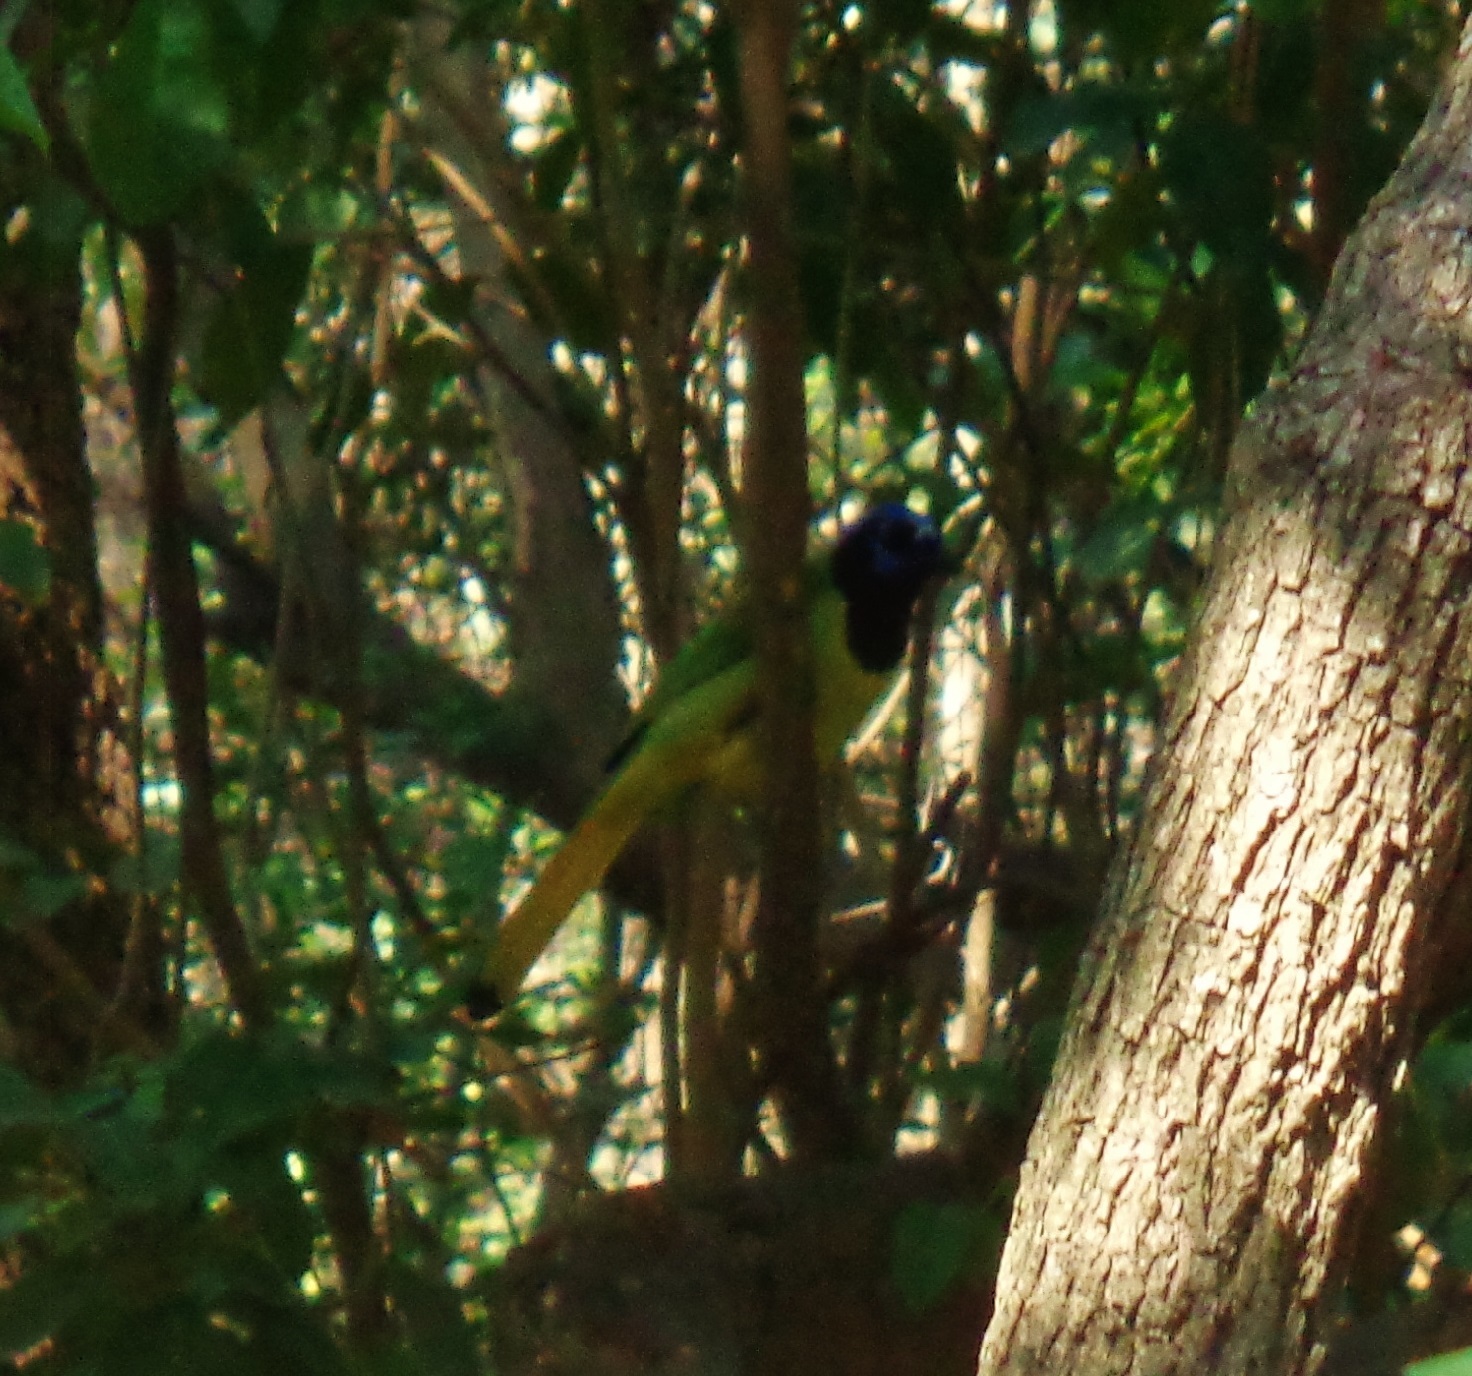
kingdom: Animalia
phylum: Chordata
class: Aves
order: Passeriformes
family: Corvidae
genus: Cyanocorax
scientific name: Cyanocorax yncas
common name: Green jay
